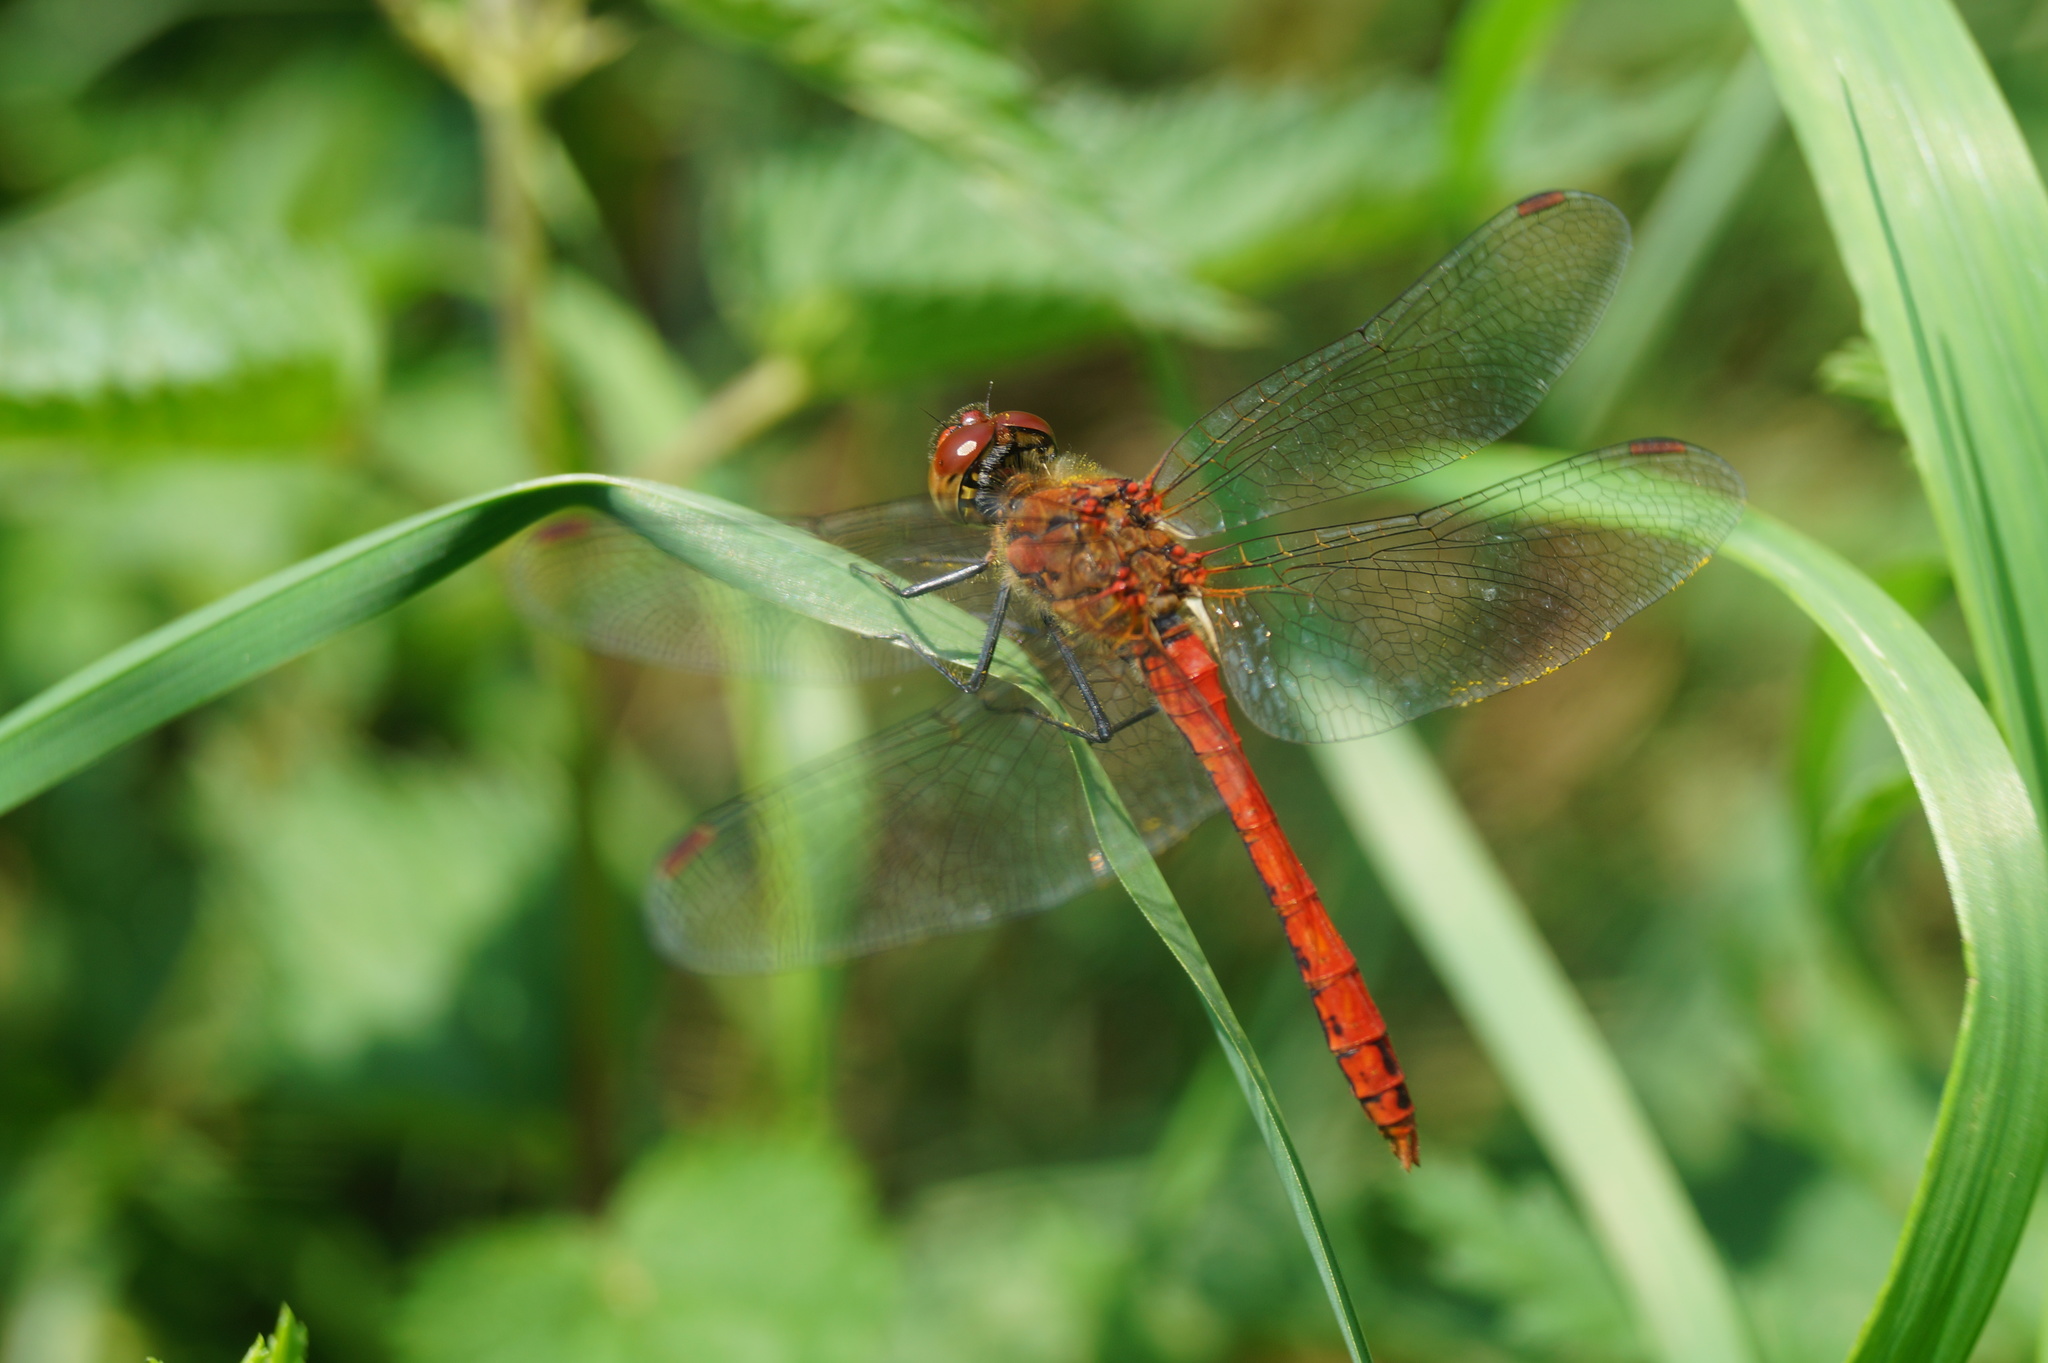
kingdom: Animalia
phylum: Arthropoda
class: Insecta
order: Odonata
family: Libellulidae
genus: Sympetrum
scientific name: Sympetrum sanguineum
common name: Ruddy darter
